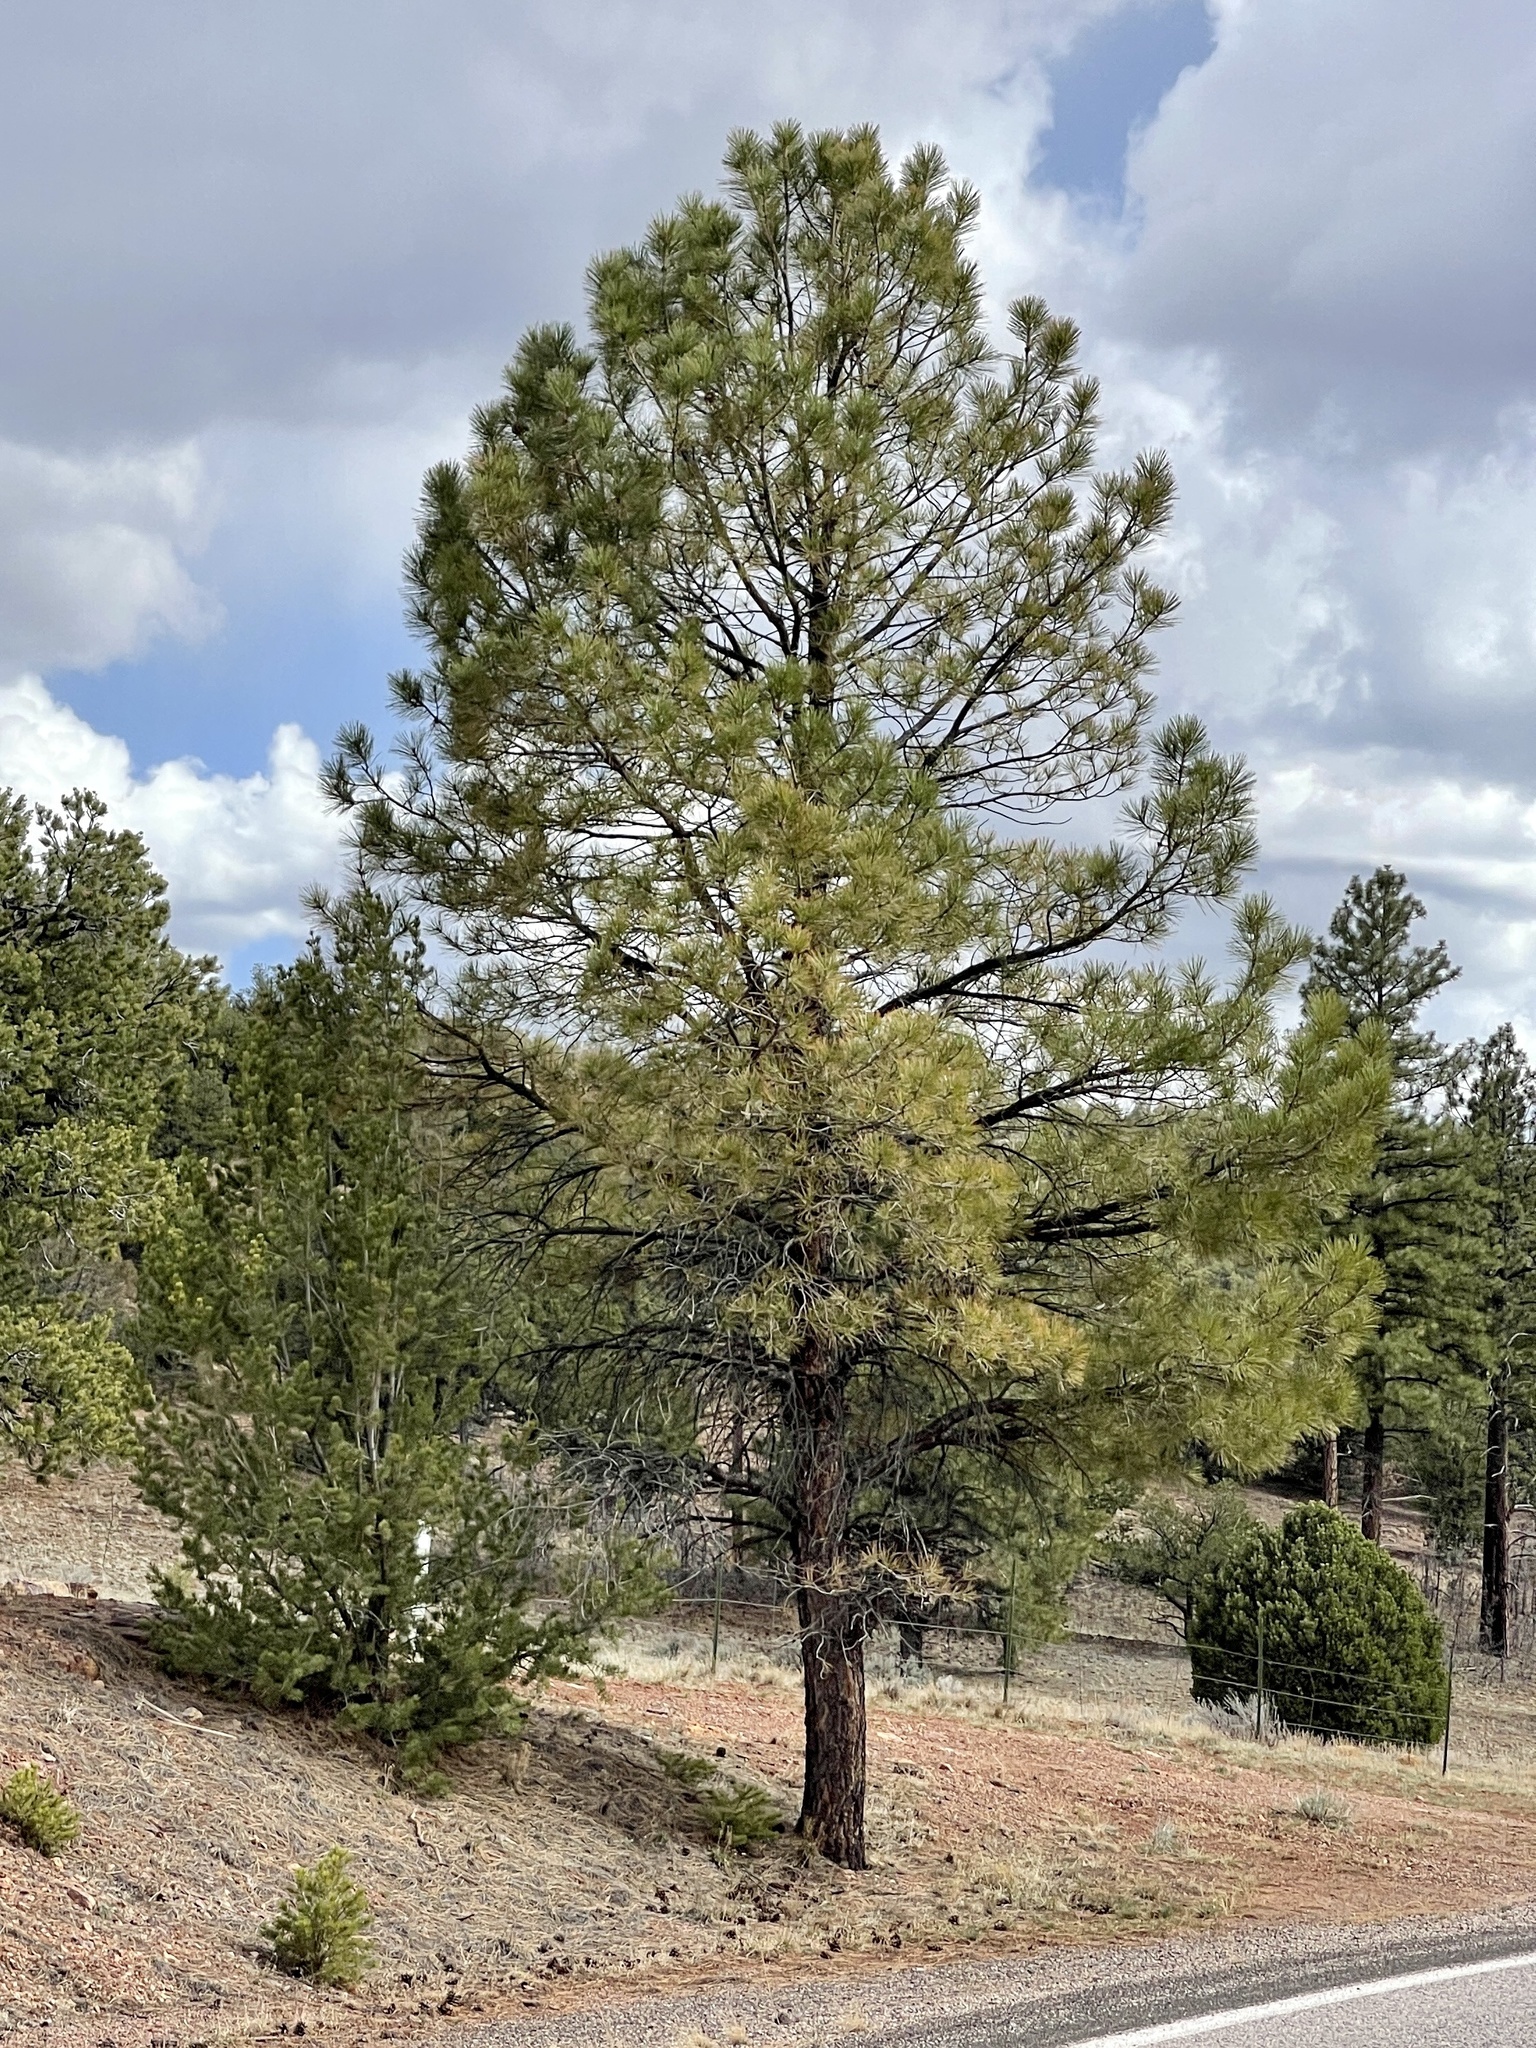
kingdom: Plantae
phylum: Tracheophyta
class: Pinopsida
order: Pinales
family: Pinaceae
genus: Pinus
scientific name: Pinus ponderosa
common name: Western yellow-pine
